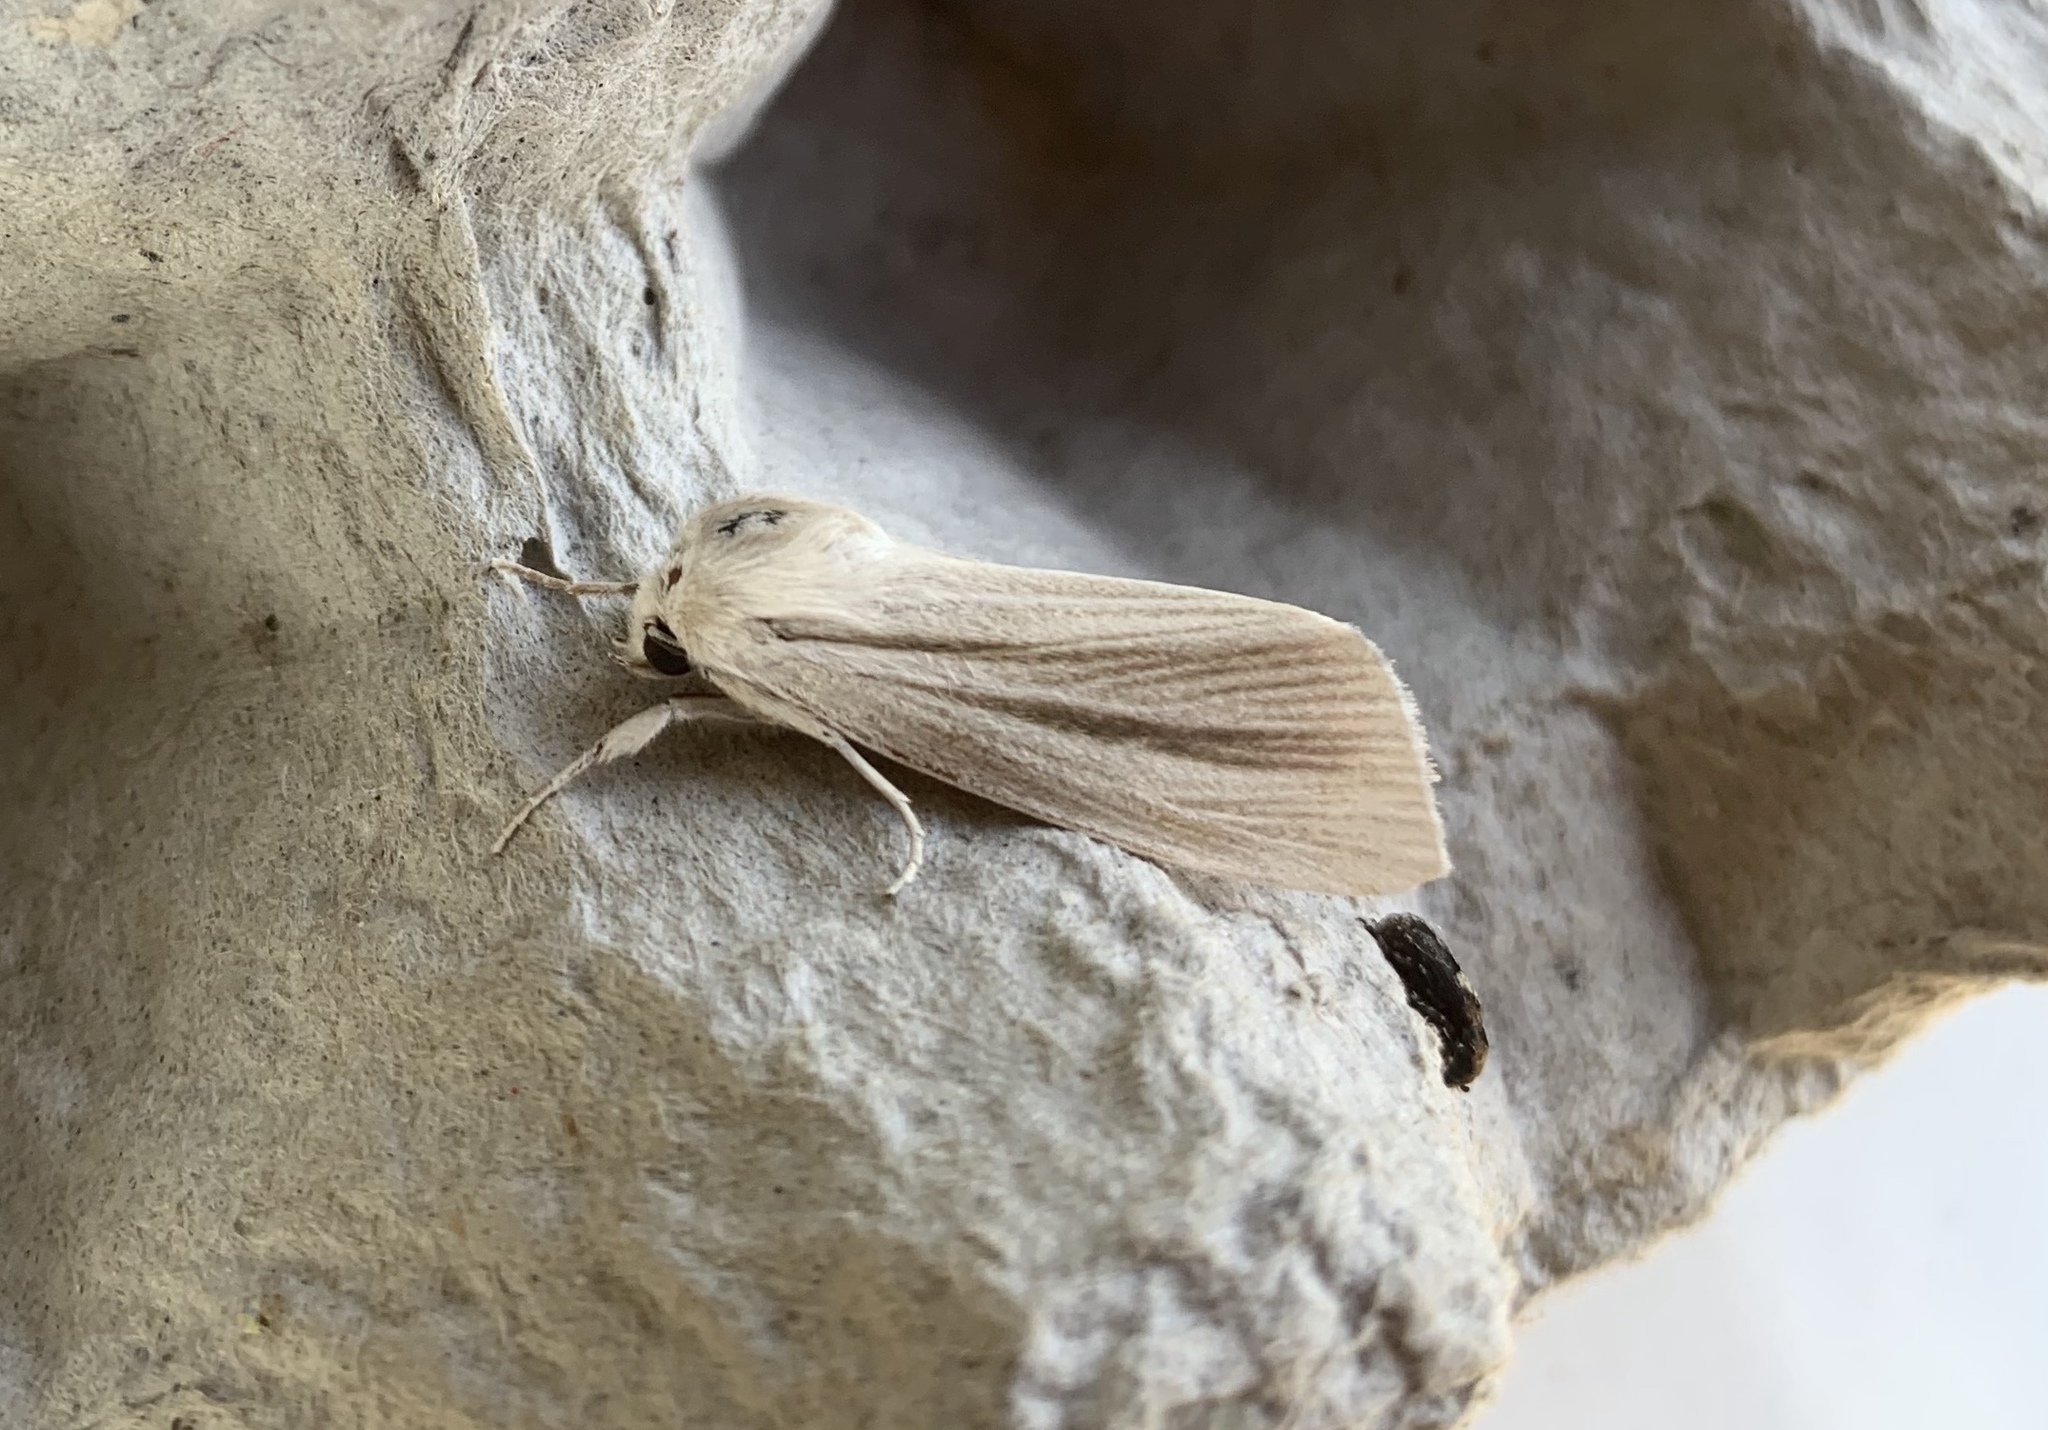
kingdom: Animalia
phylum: Arthropoda
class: Insecta
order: Lepidoptera
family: Noctuidae
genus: Acronicta
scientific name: Acronicta insularis
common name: Henry's marsh moth
